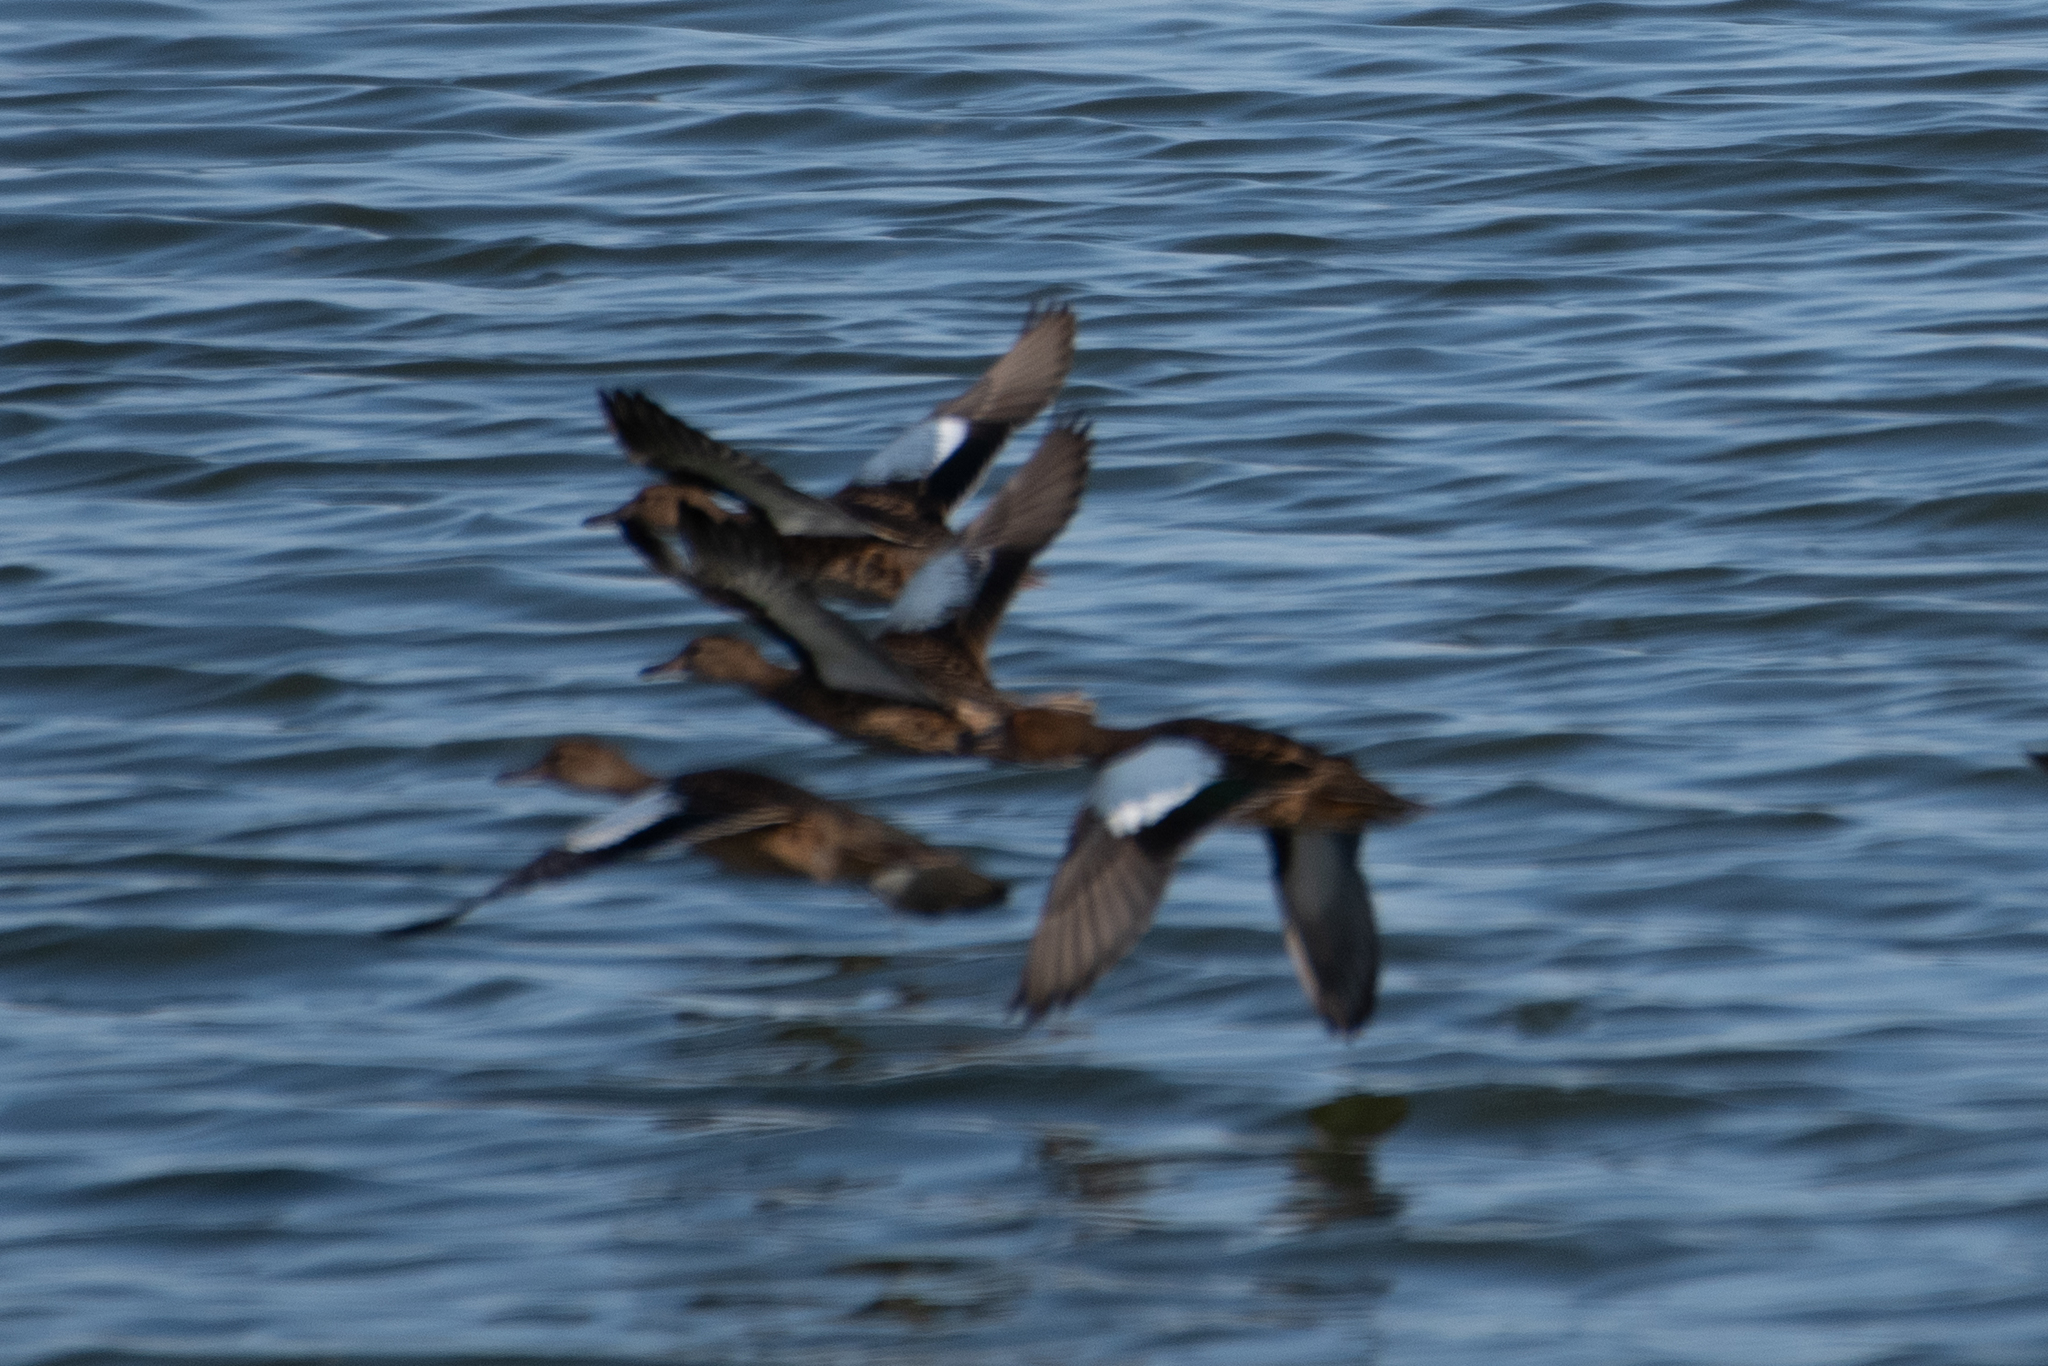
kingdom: Animalia
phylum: Chordata
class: Aves
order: Anseriformes
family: Anatidae
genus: Spatula
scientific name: Spatula cyanoptera
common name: Cinnamon teal
